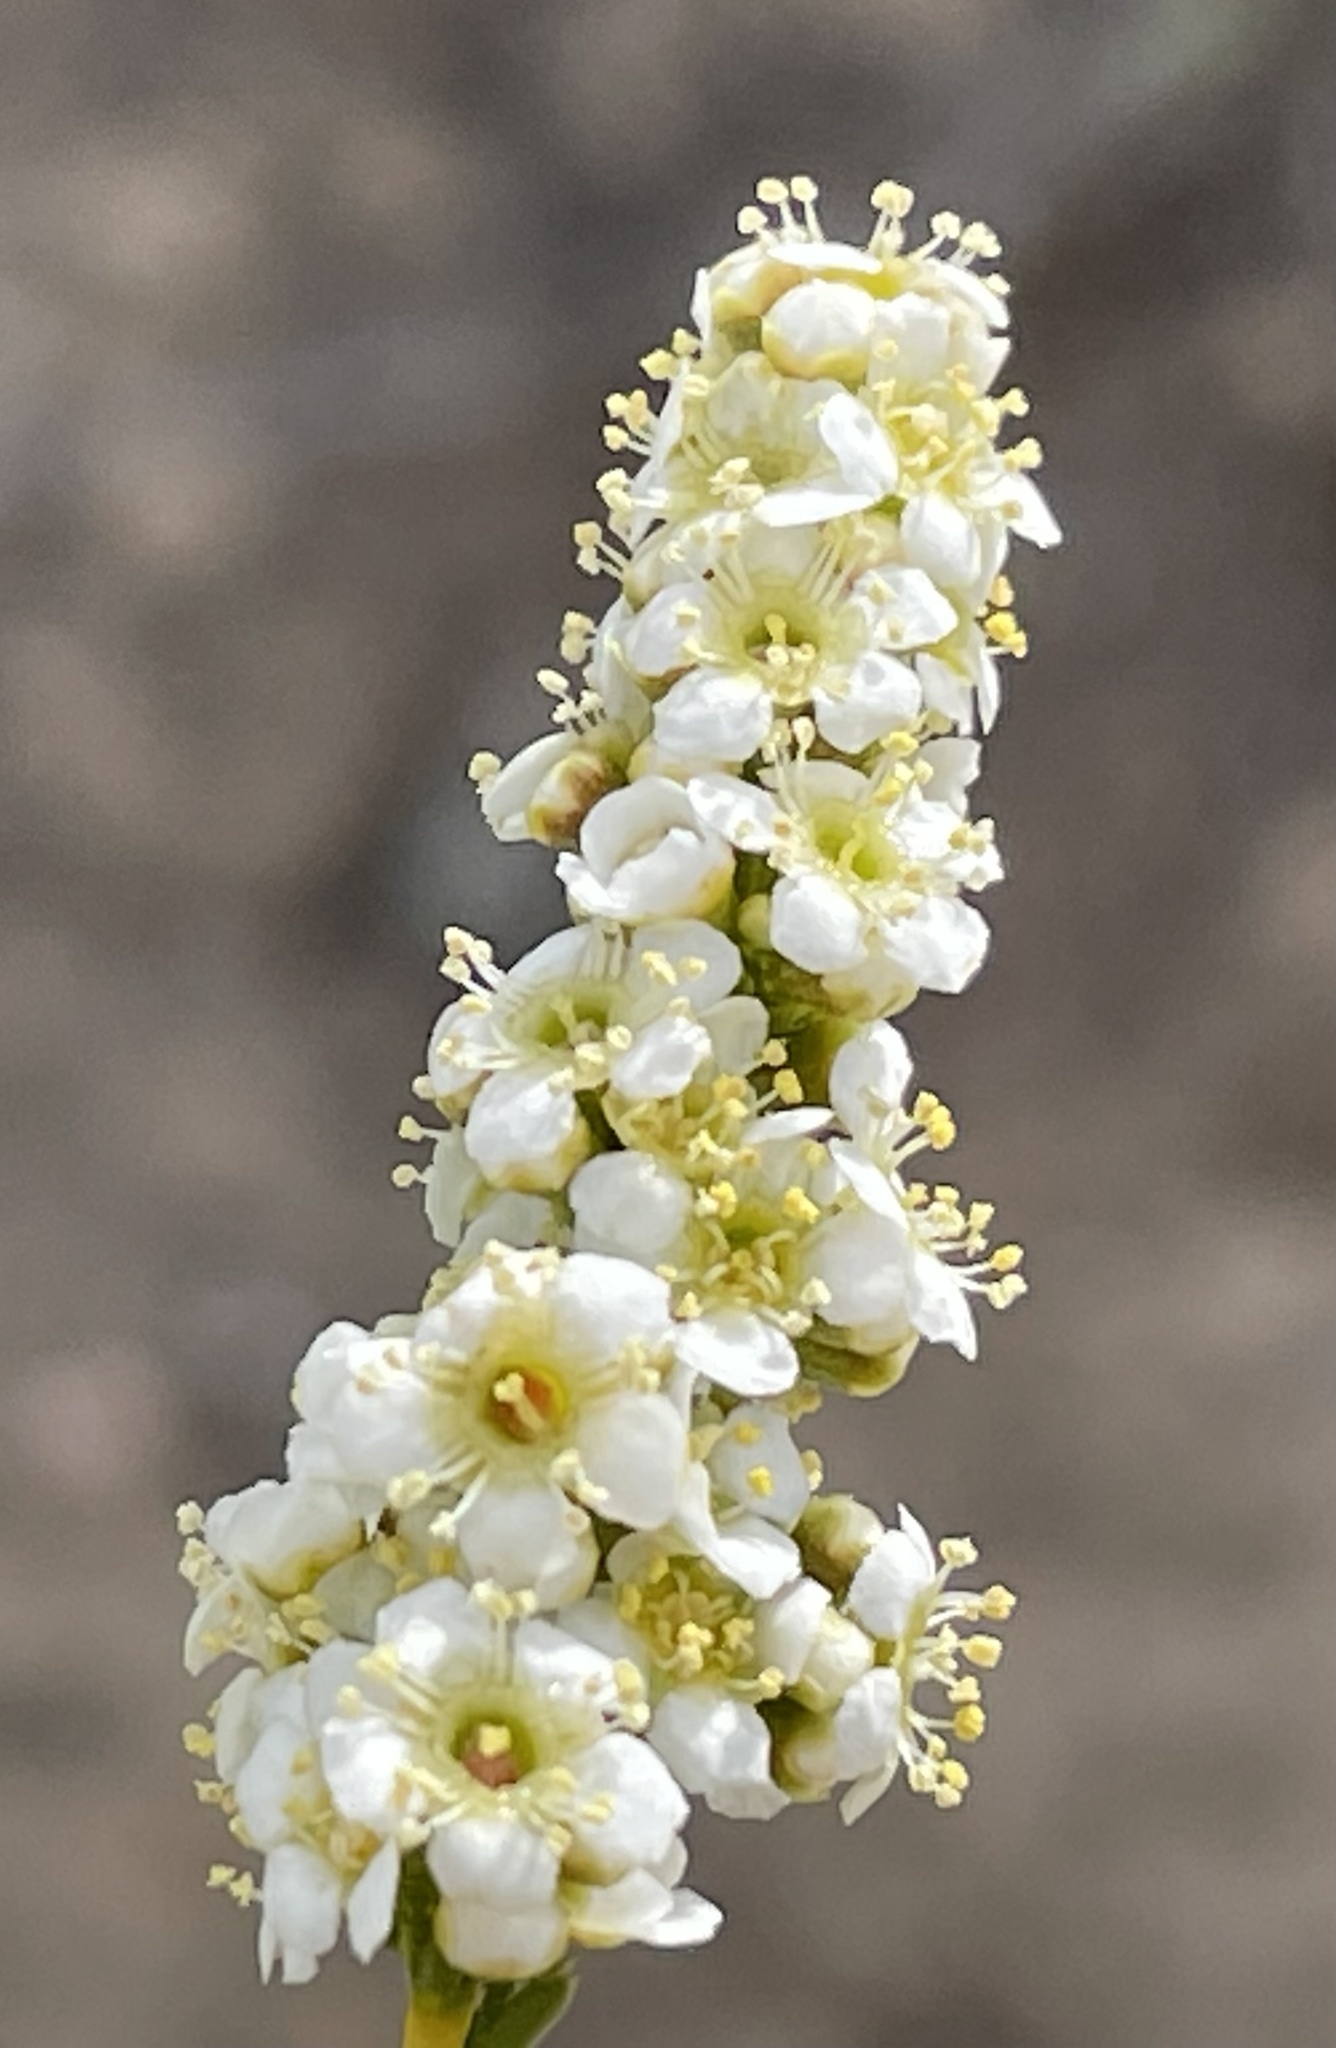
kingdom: Plantae
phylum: Tracheophyta
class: Magnoliopsida
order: Rosales
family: Rosaceae
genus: Adenostoma
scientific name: Adenostoma fasciculatum
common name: Chamise
